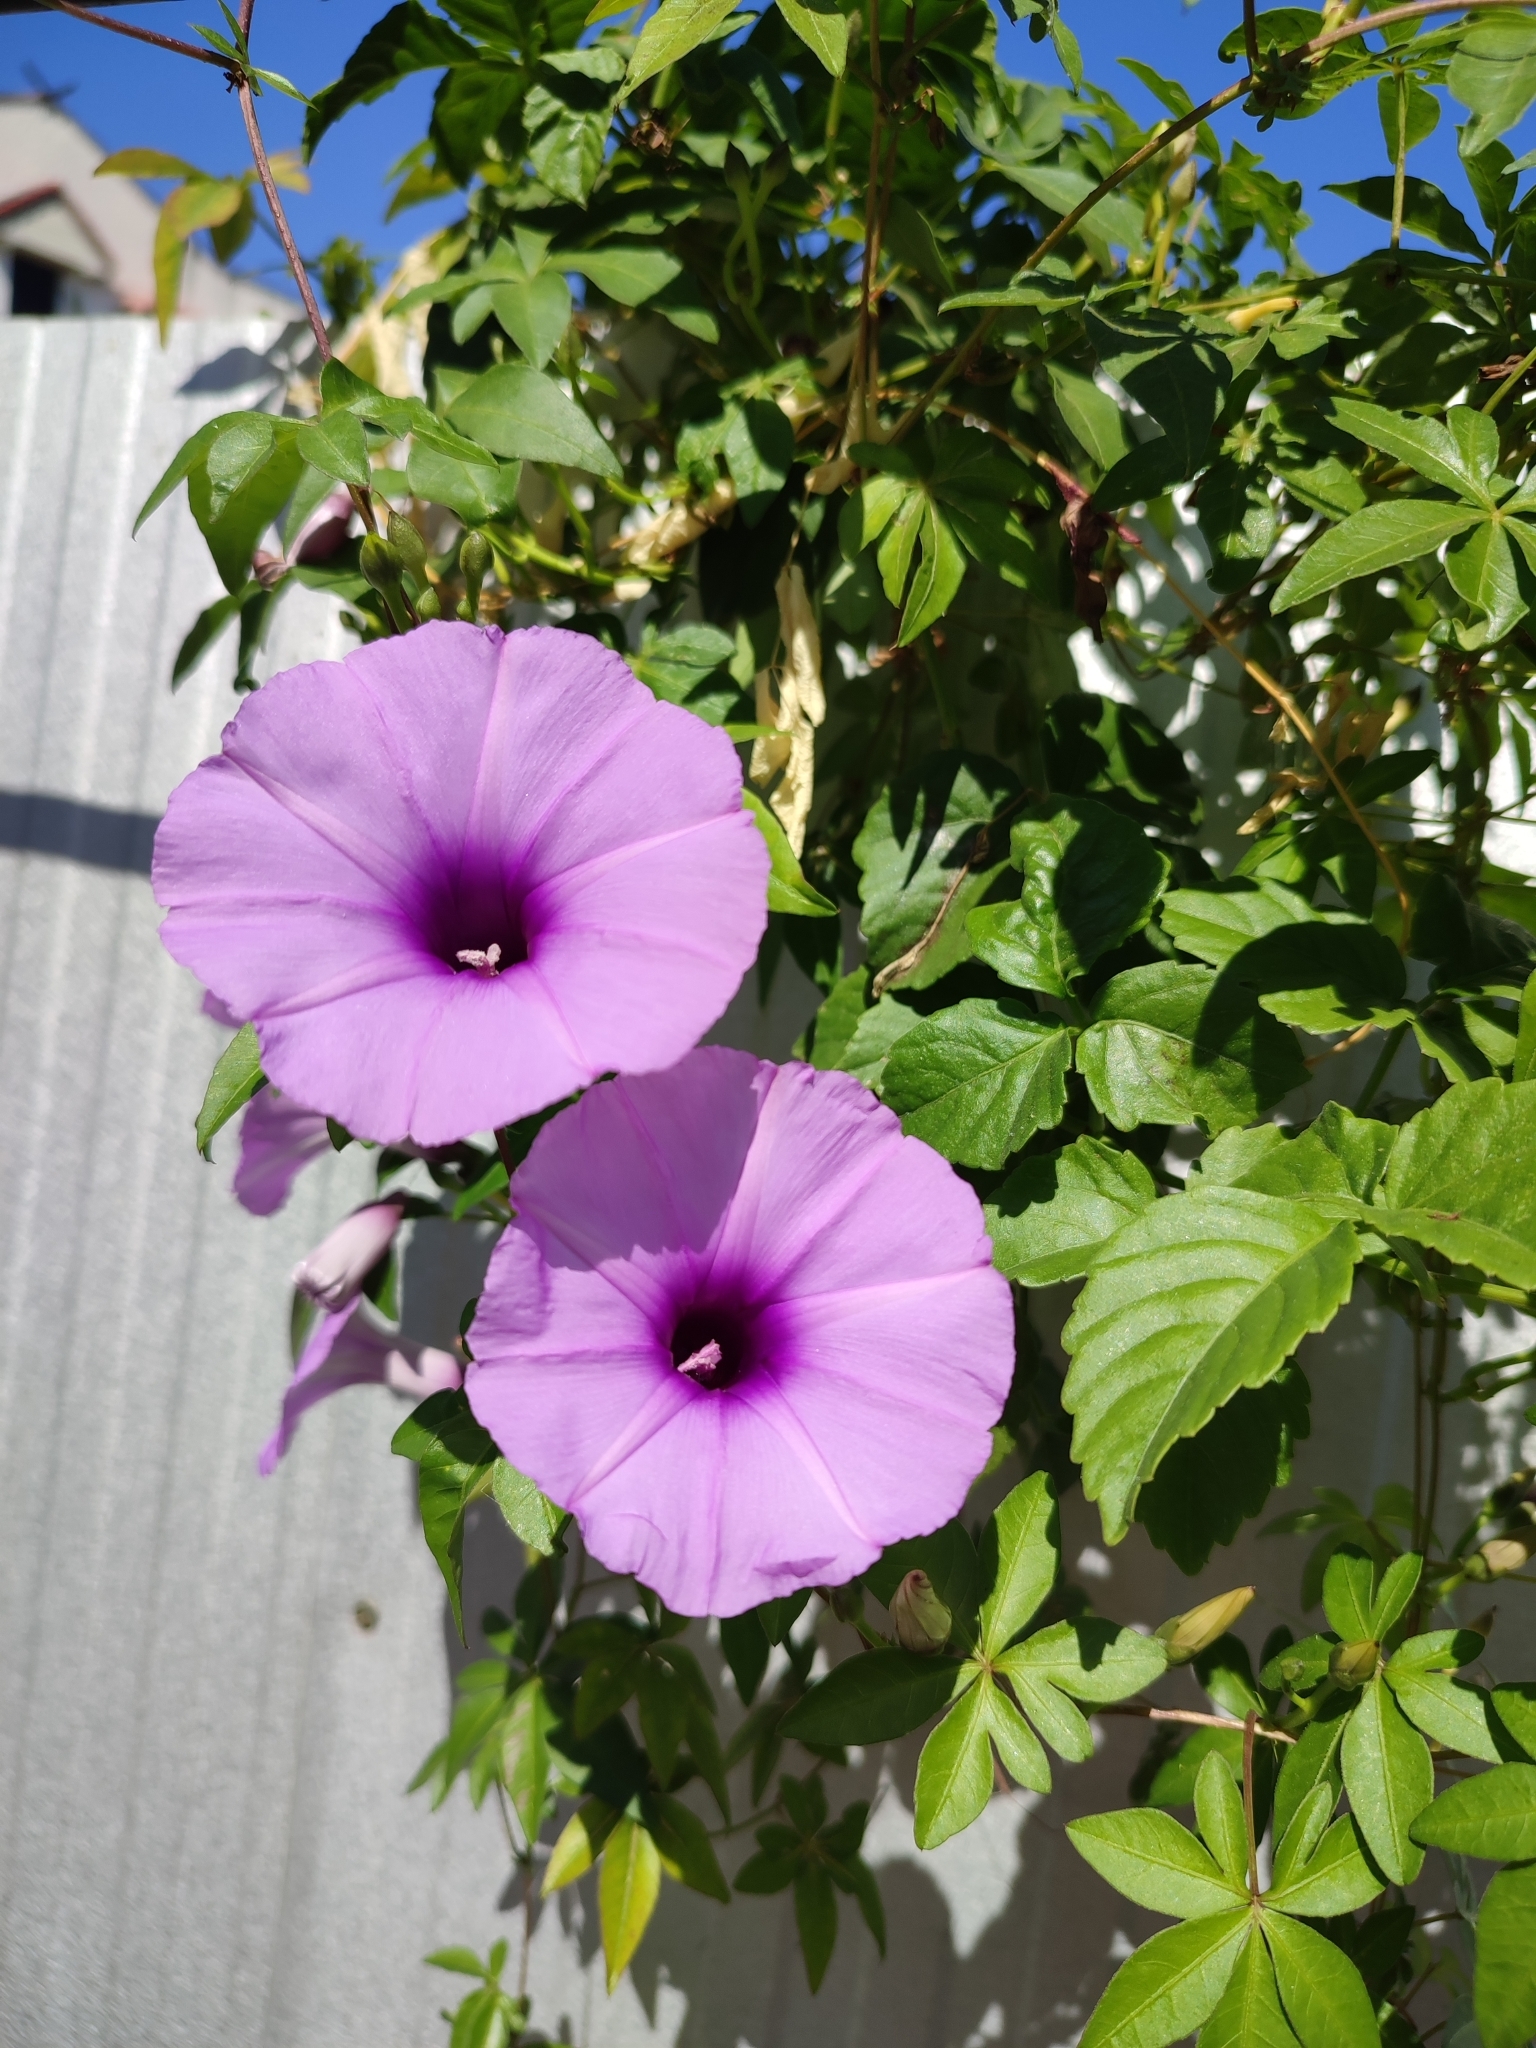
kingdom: Plantae
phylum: Tracheophyta
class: Magnoliopsida
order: Solanales
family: Convolvulaceae
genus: Ipomoea
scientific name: Ipomoea cairica
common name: Mile a minute vine
